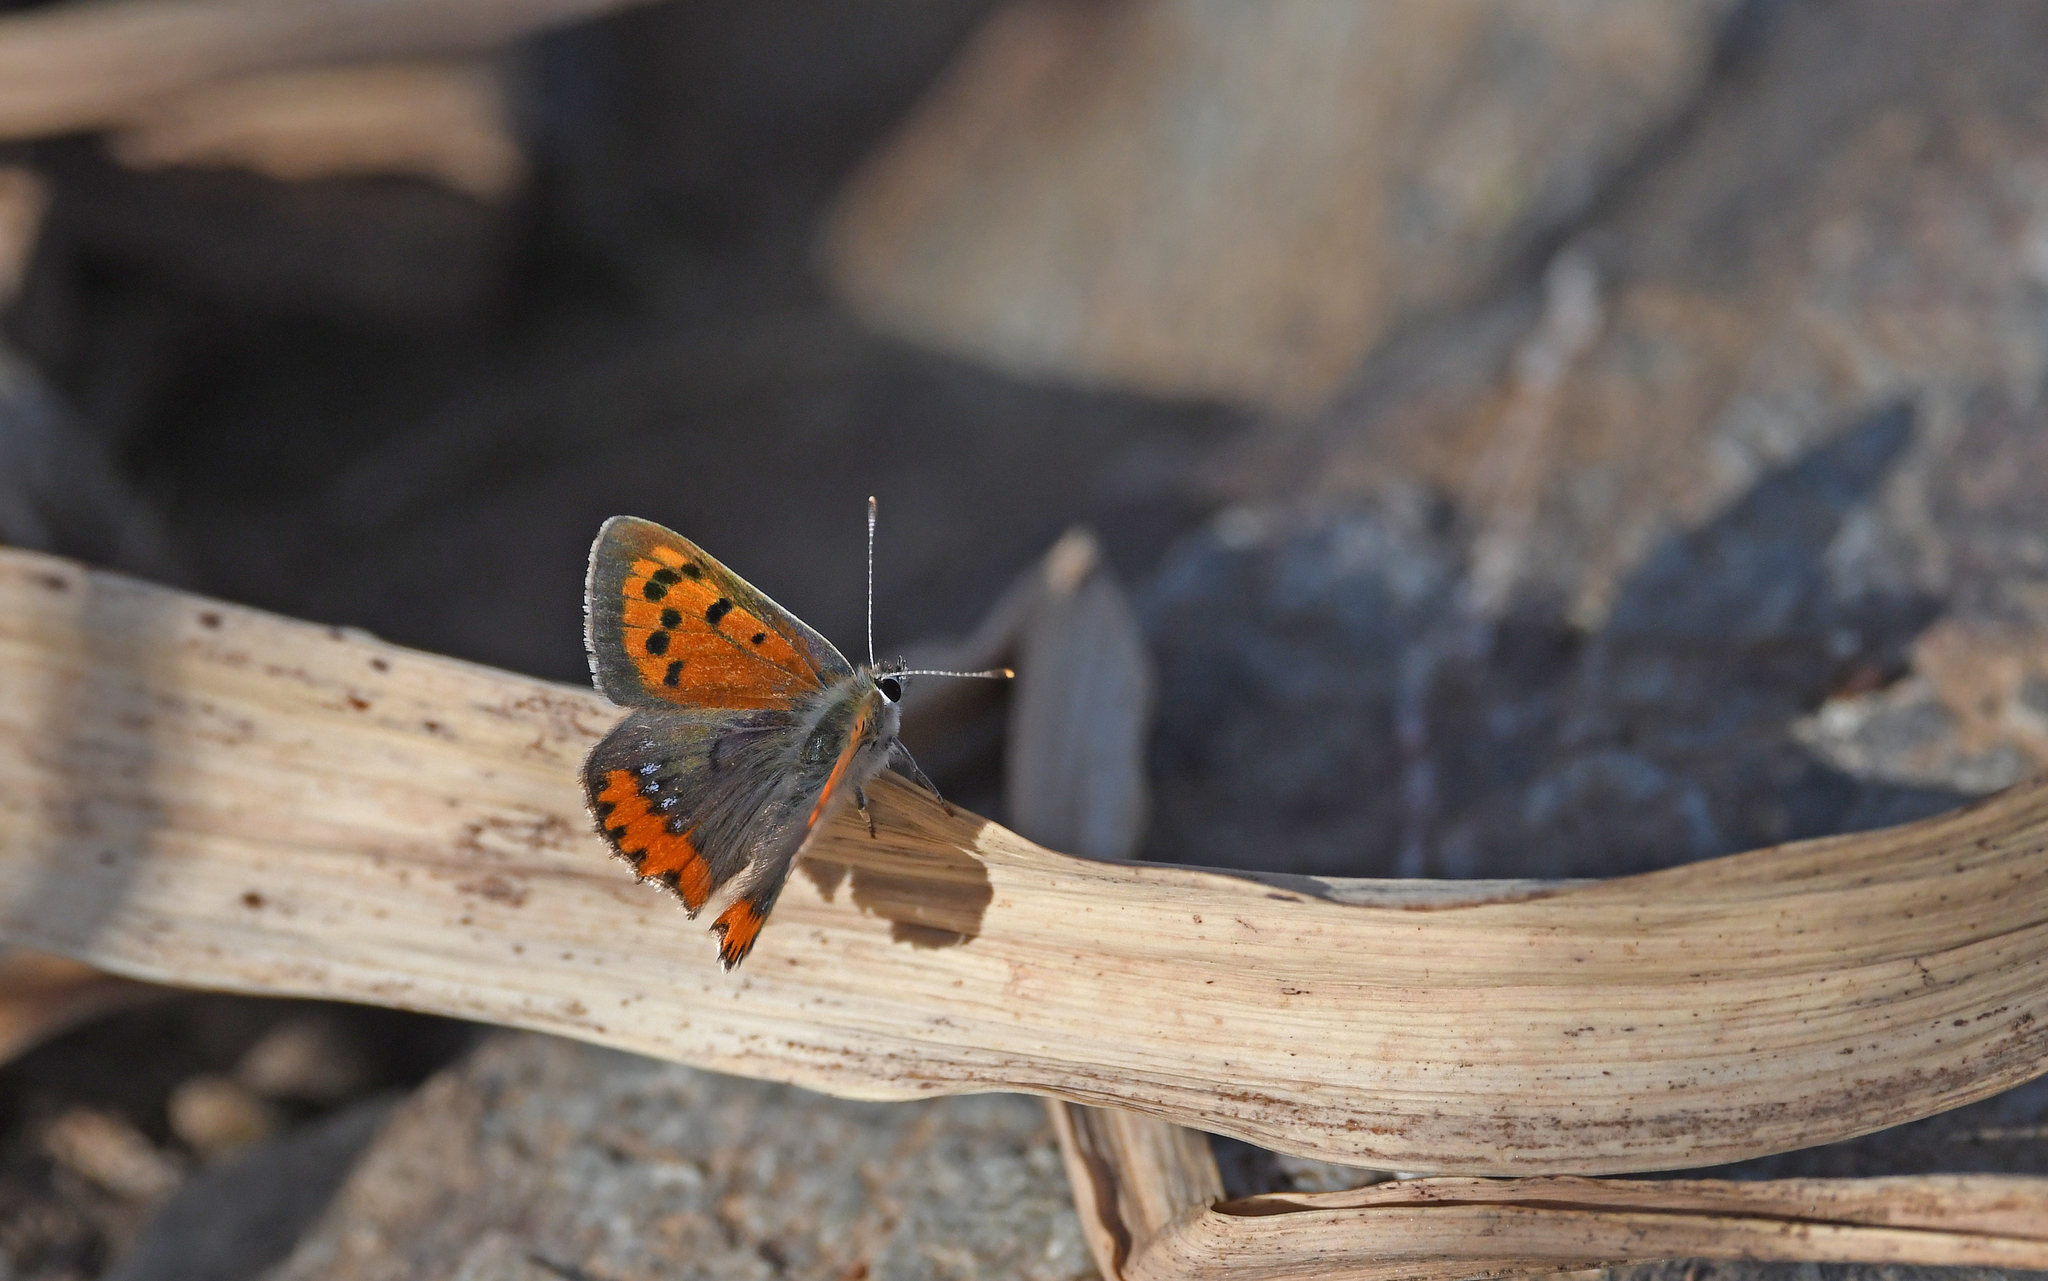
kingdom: Animalia
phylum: Arthropoda
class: Insecta
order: Lepidoptera
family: Lycaenidae
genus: Lycaena
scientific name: Lycaena phlaeas
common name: Small copper
